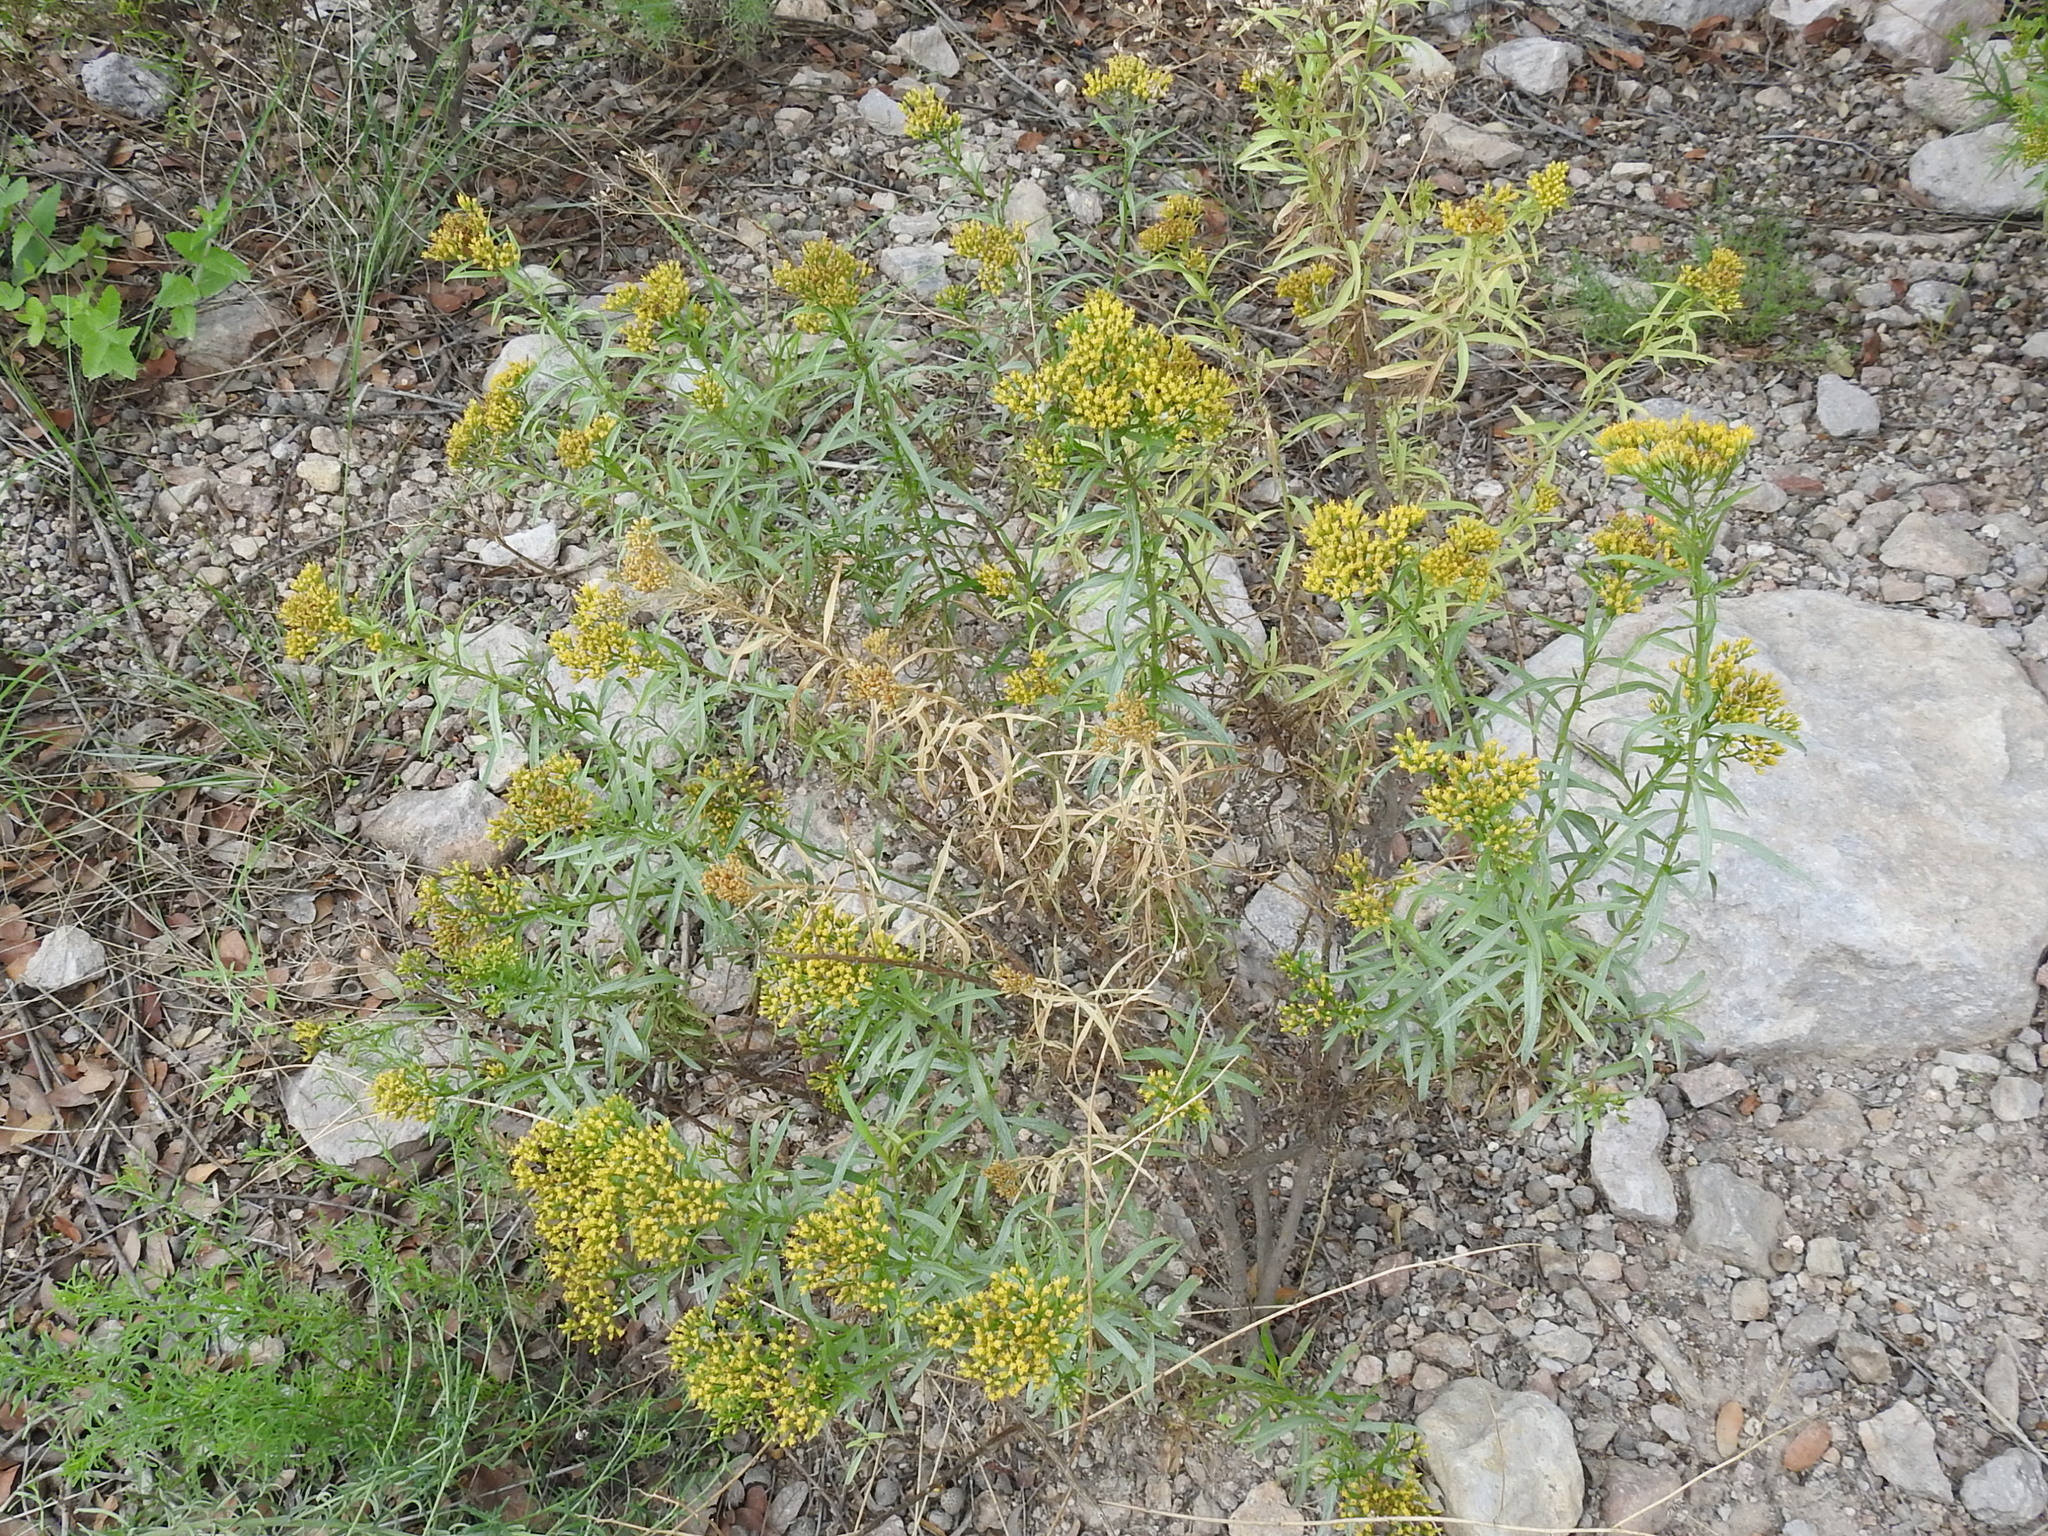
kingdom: Plantae
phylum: Tracheophyta
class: Magnoliopsida
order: Asterales
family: Asteraceae
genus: Gymnosperma
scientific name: Gymnosperma glutinosum
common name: Gumhead
